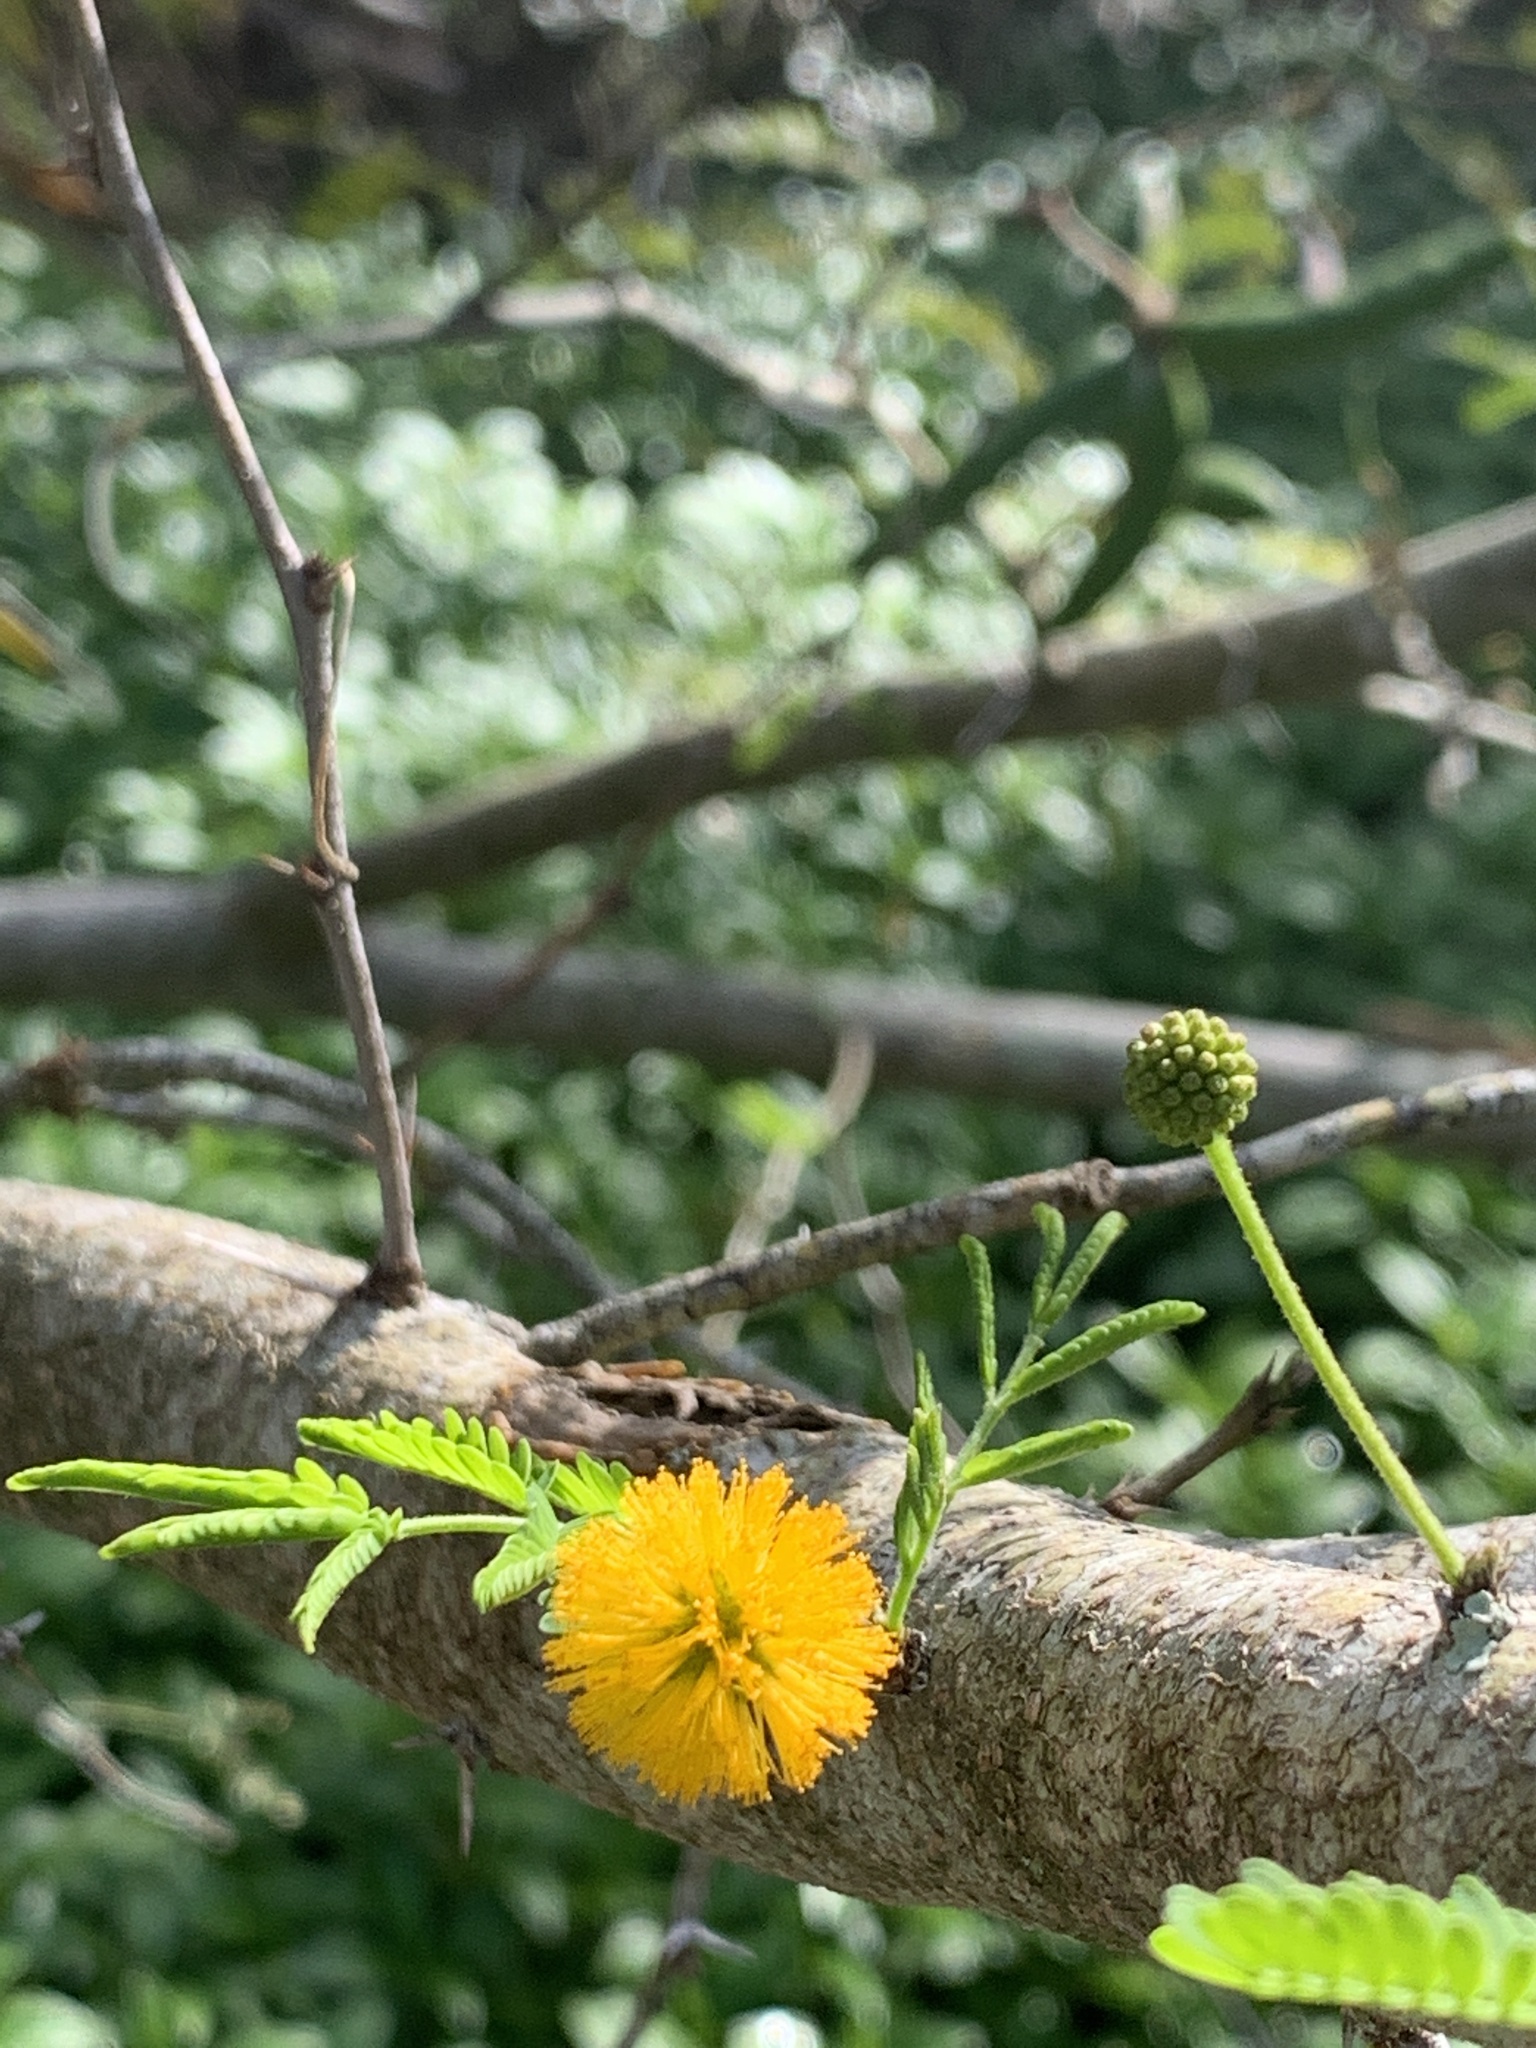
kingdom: Plantae
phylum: Tracheophyta
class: Magnoliopsida
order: Fabales
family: Fabaceae
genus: Vachellia
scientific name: Vachellia farnesiana
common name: Sweet acacia
